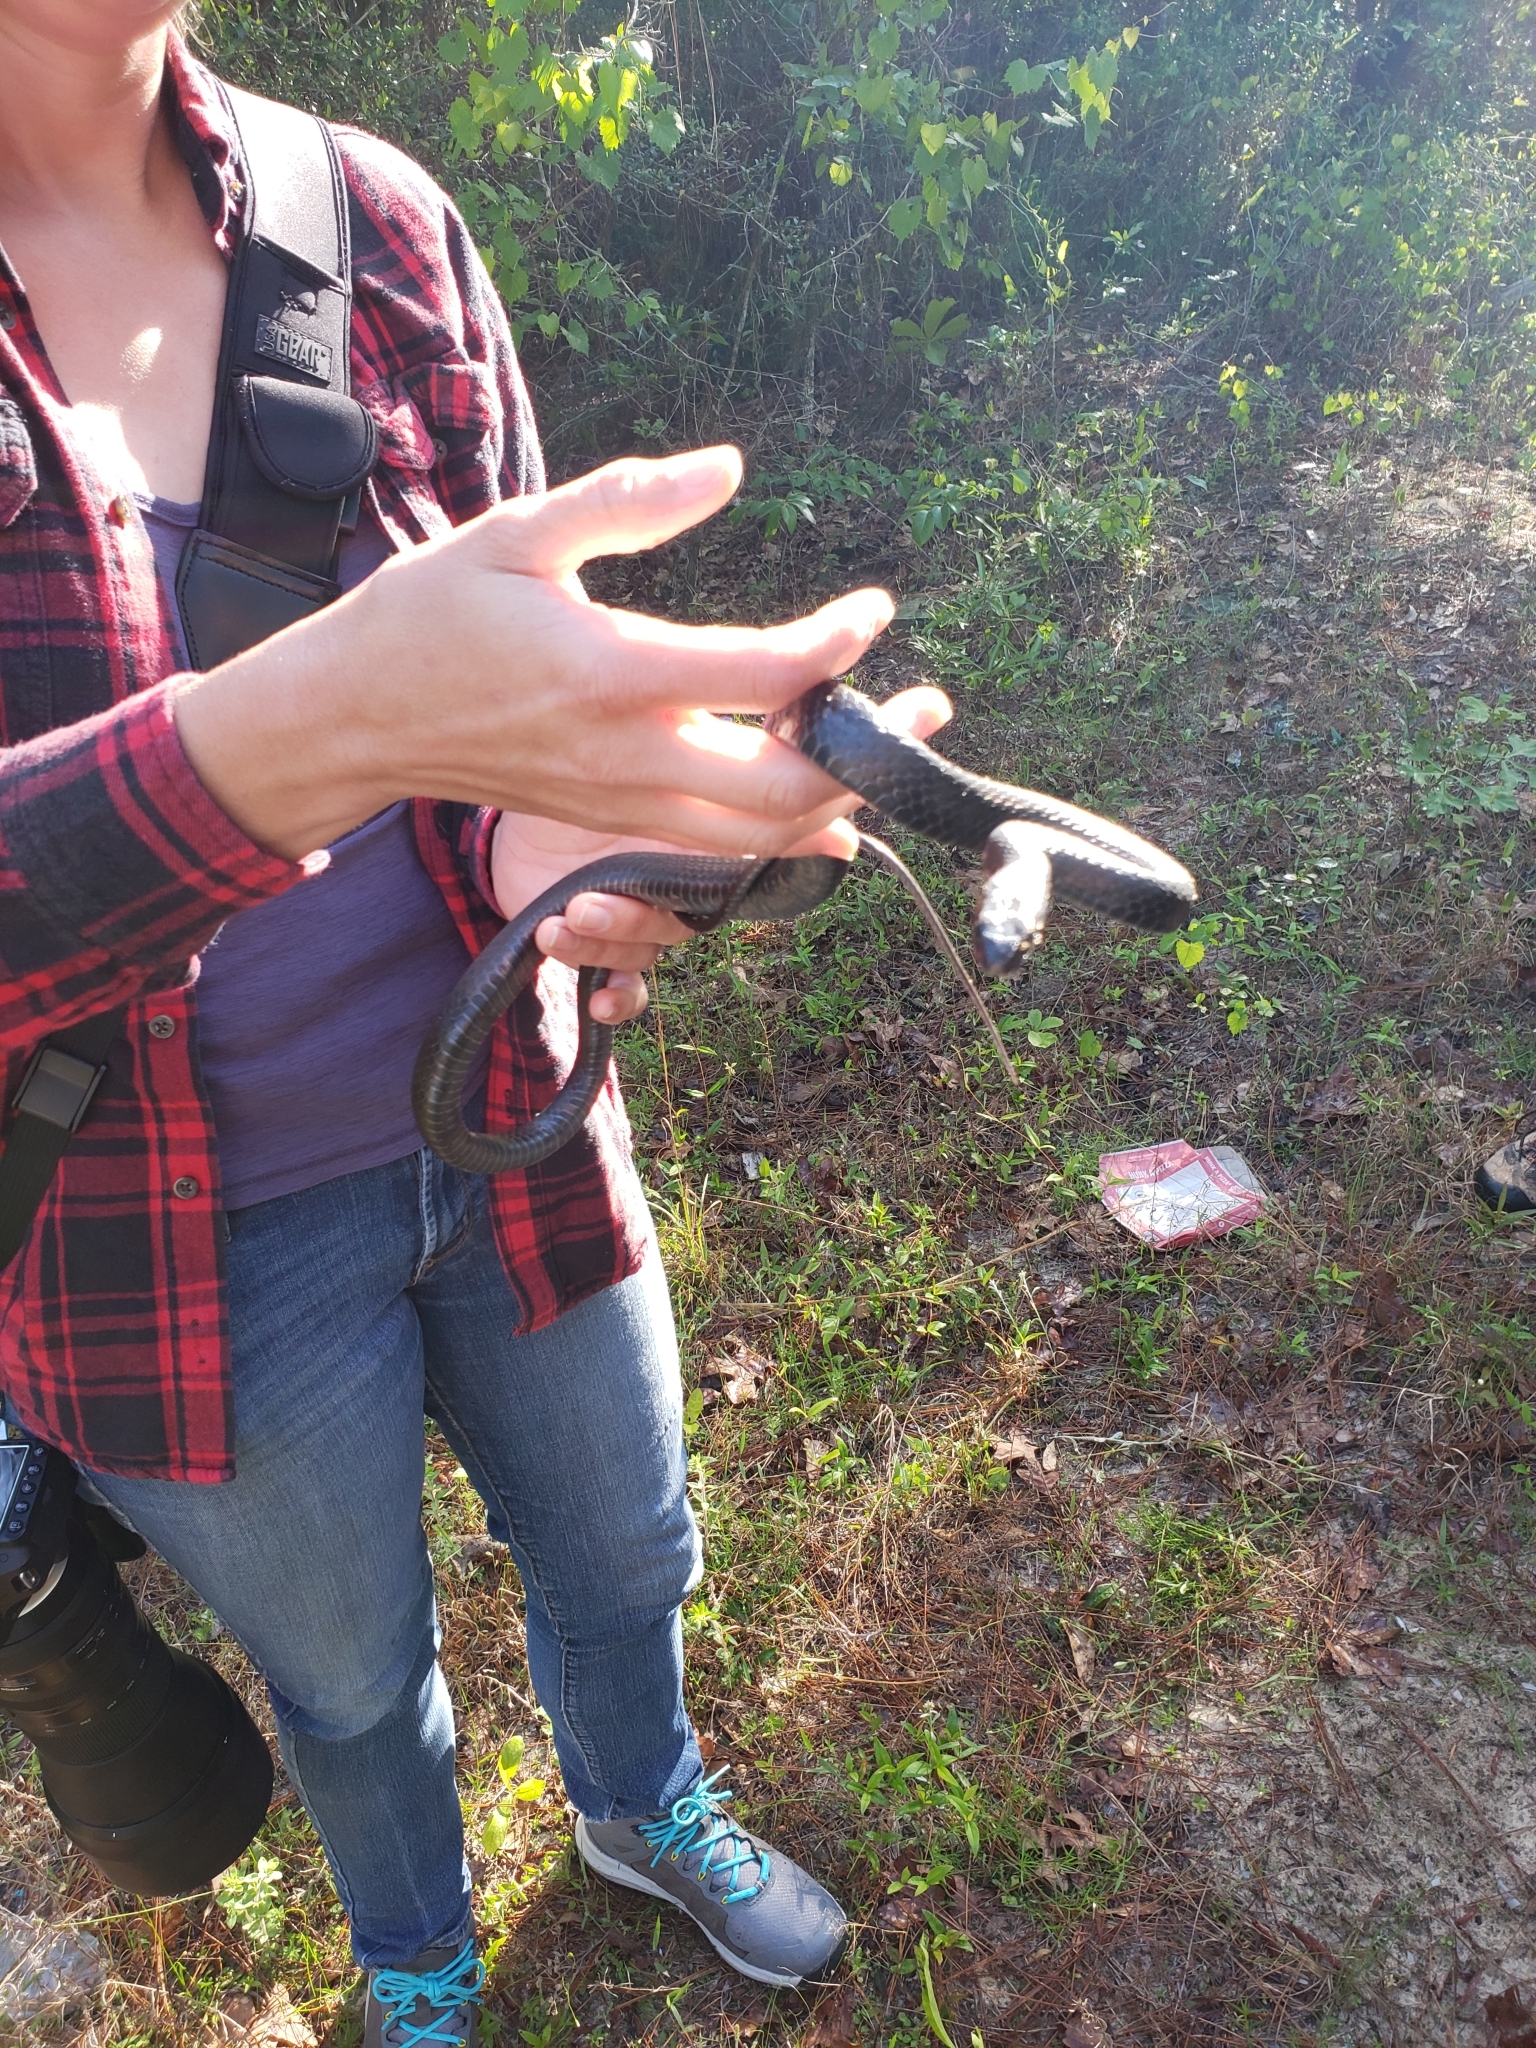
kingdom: Animalia
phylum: Chordata
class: Squamata
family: Colubridae
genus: Coluber
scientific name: Coluber constrictor
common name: Eastern racer
